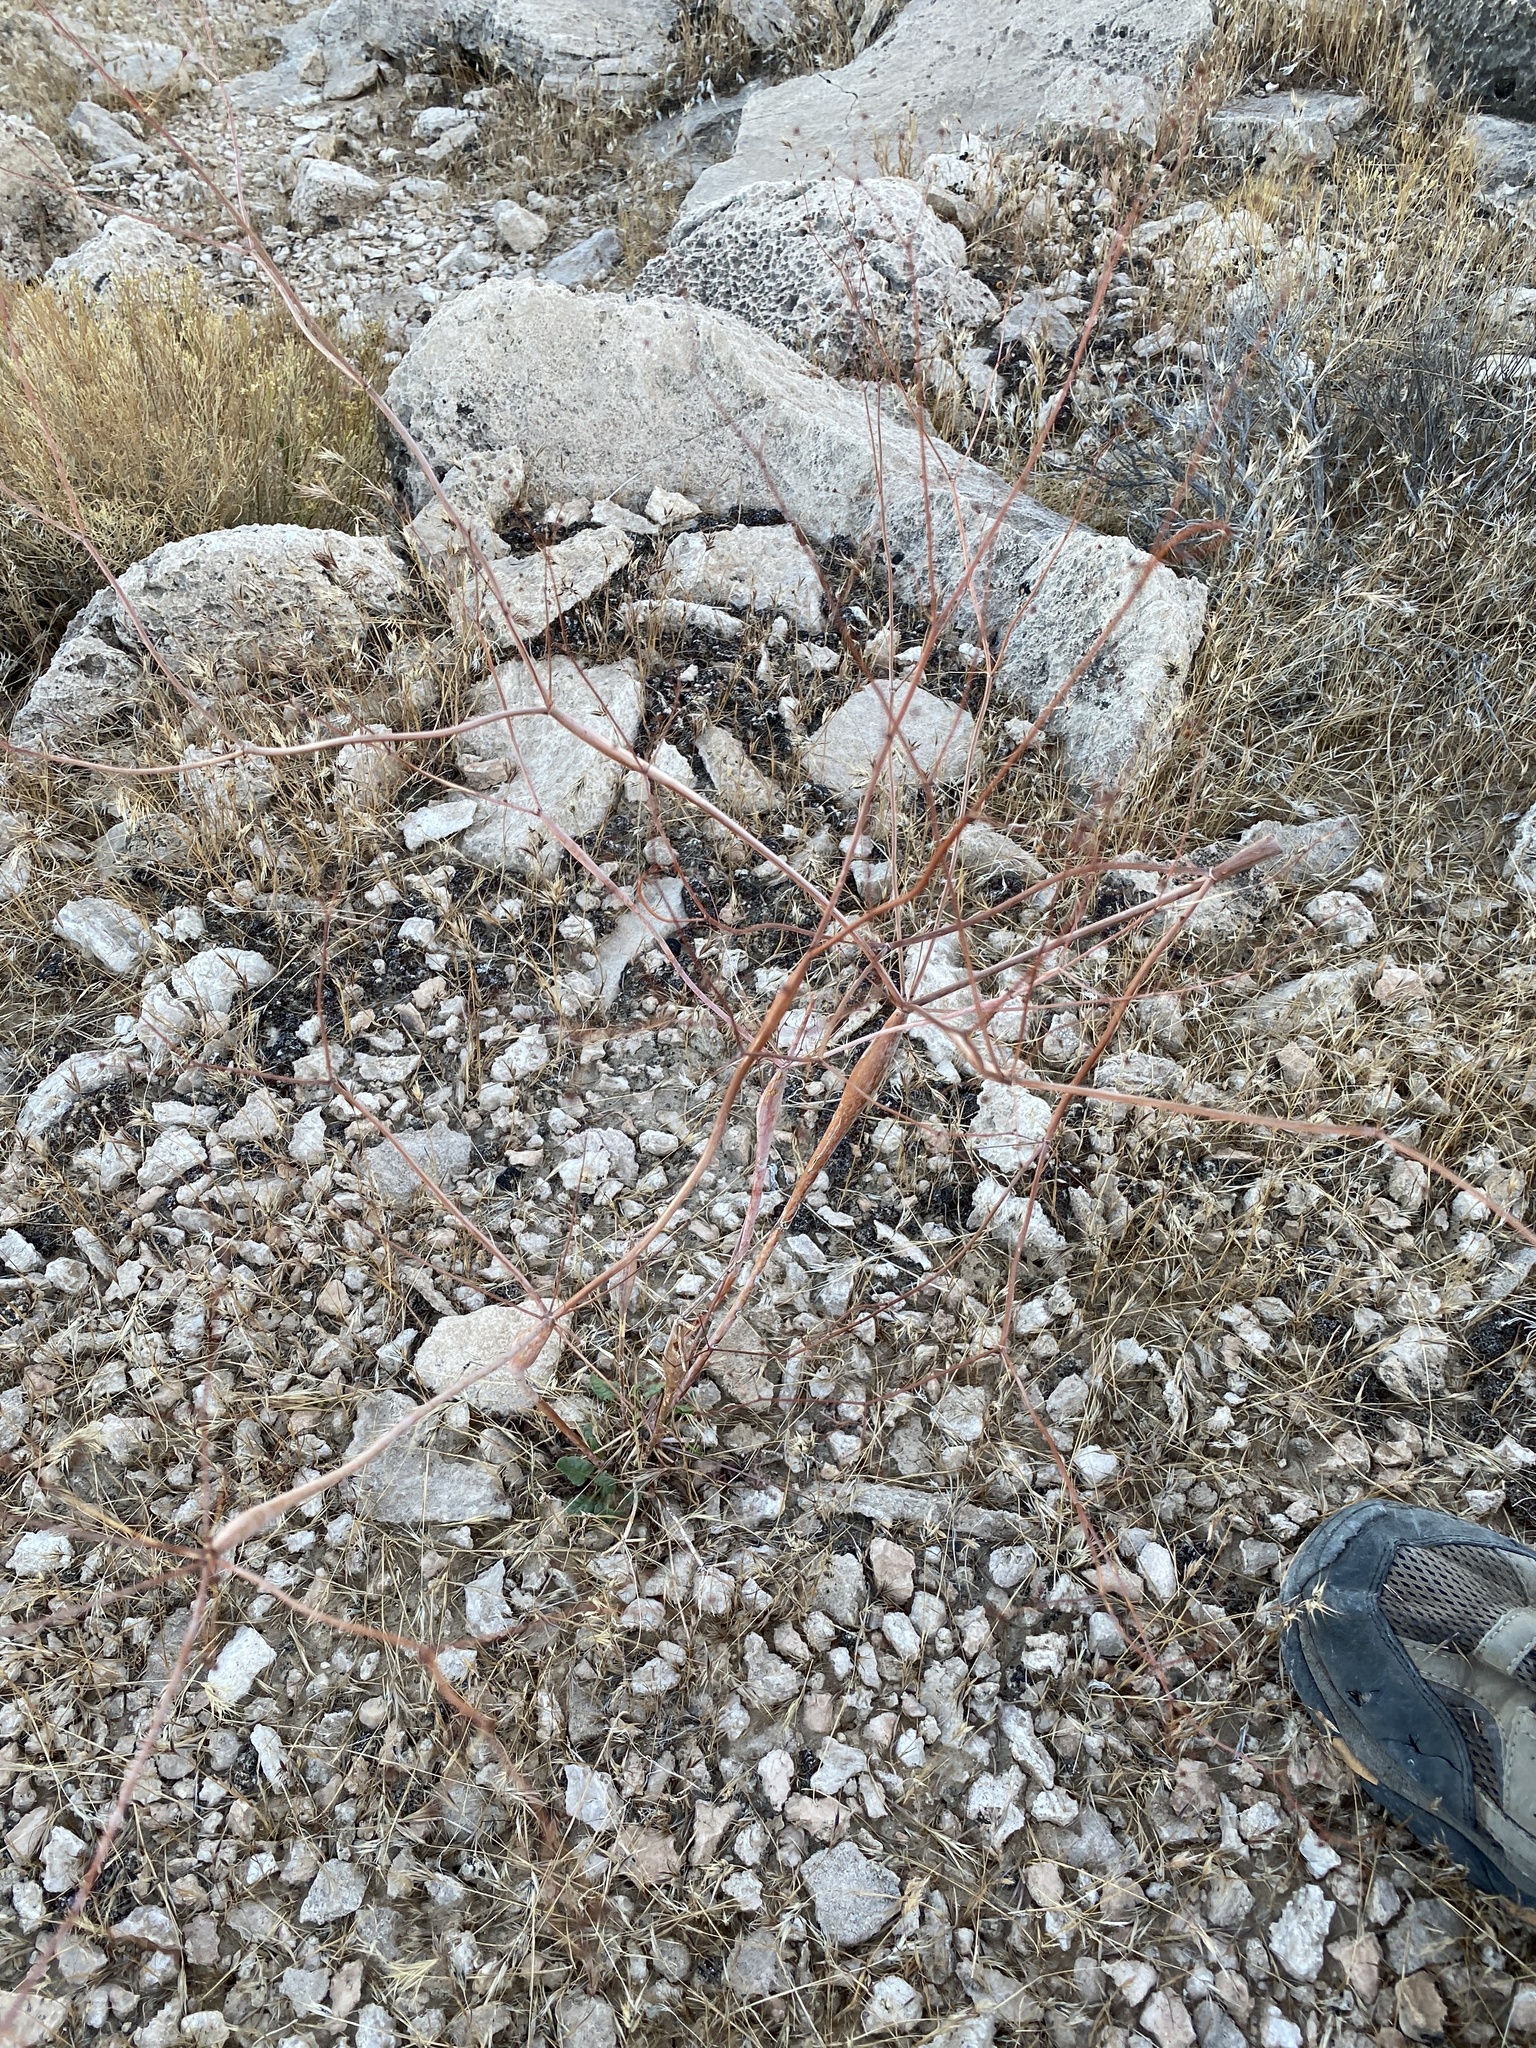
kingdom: Plantae
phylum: Tracheophyta
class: Magnoliopsida
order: Caryophyllales
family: Polygonaceae
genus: Eriogonum
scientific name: Eriogonum inflatum
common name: Desert trumpet
